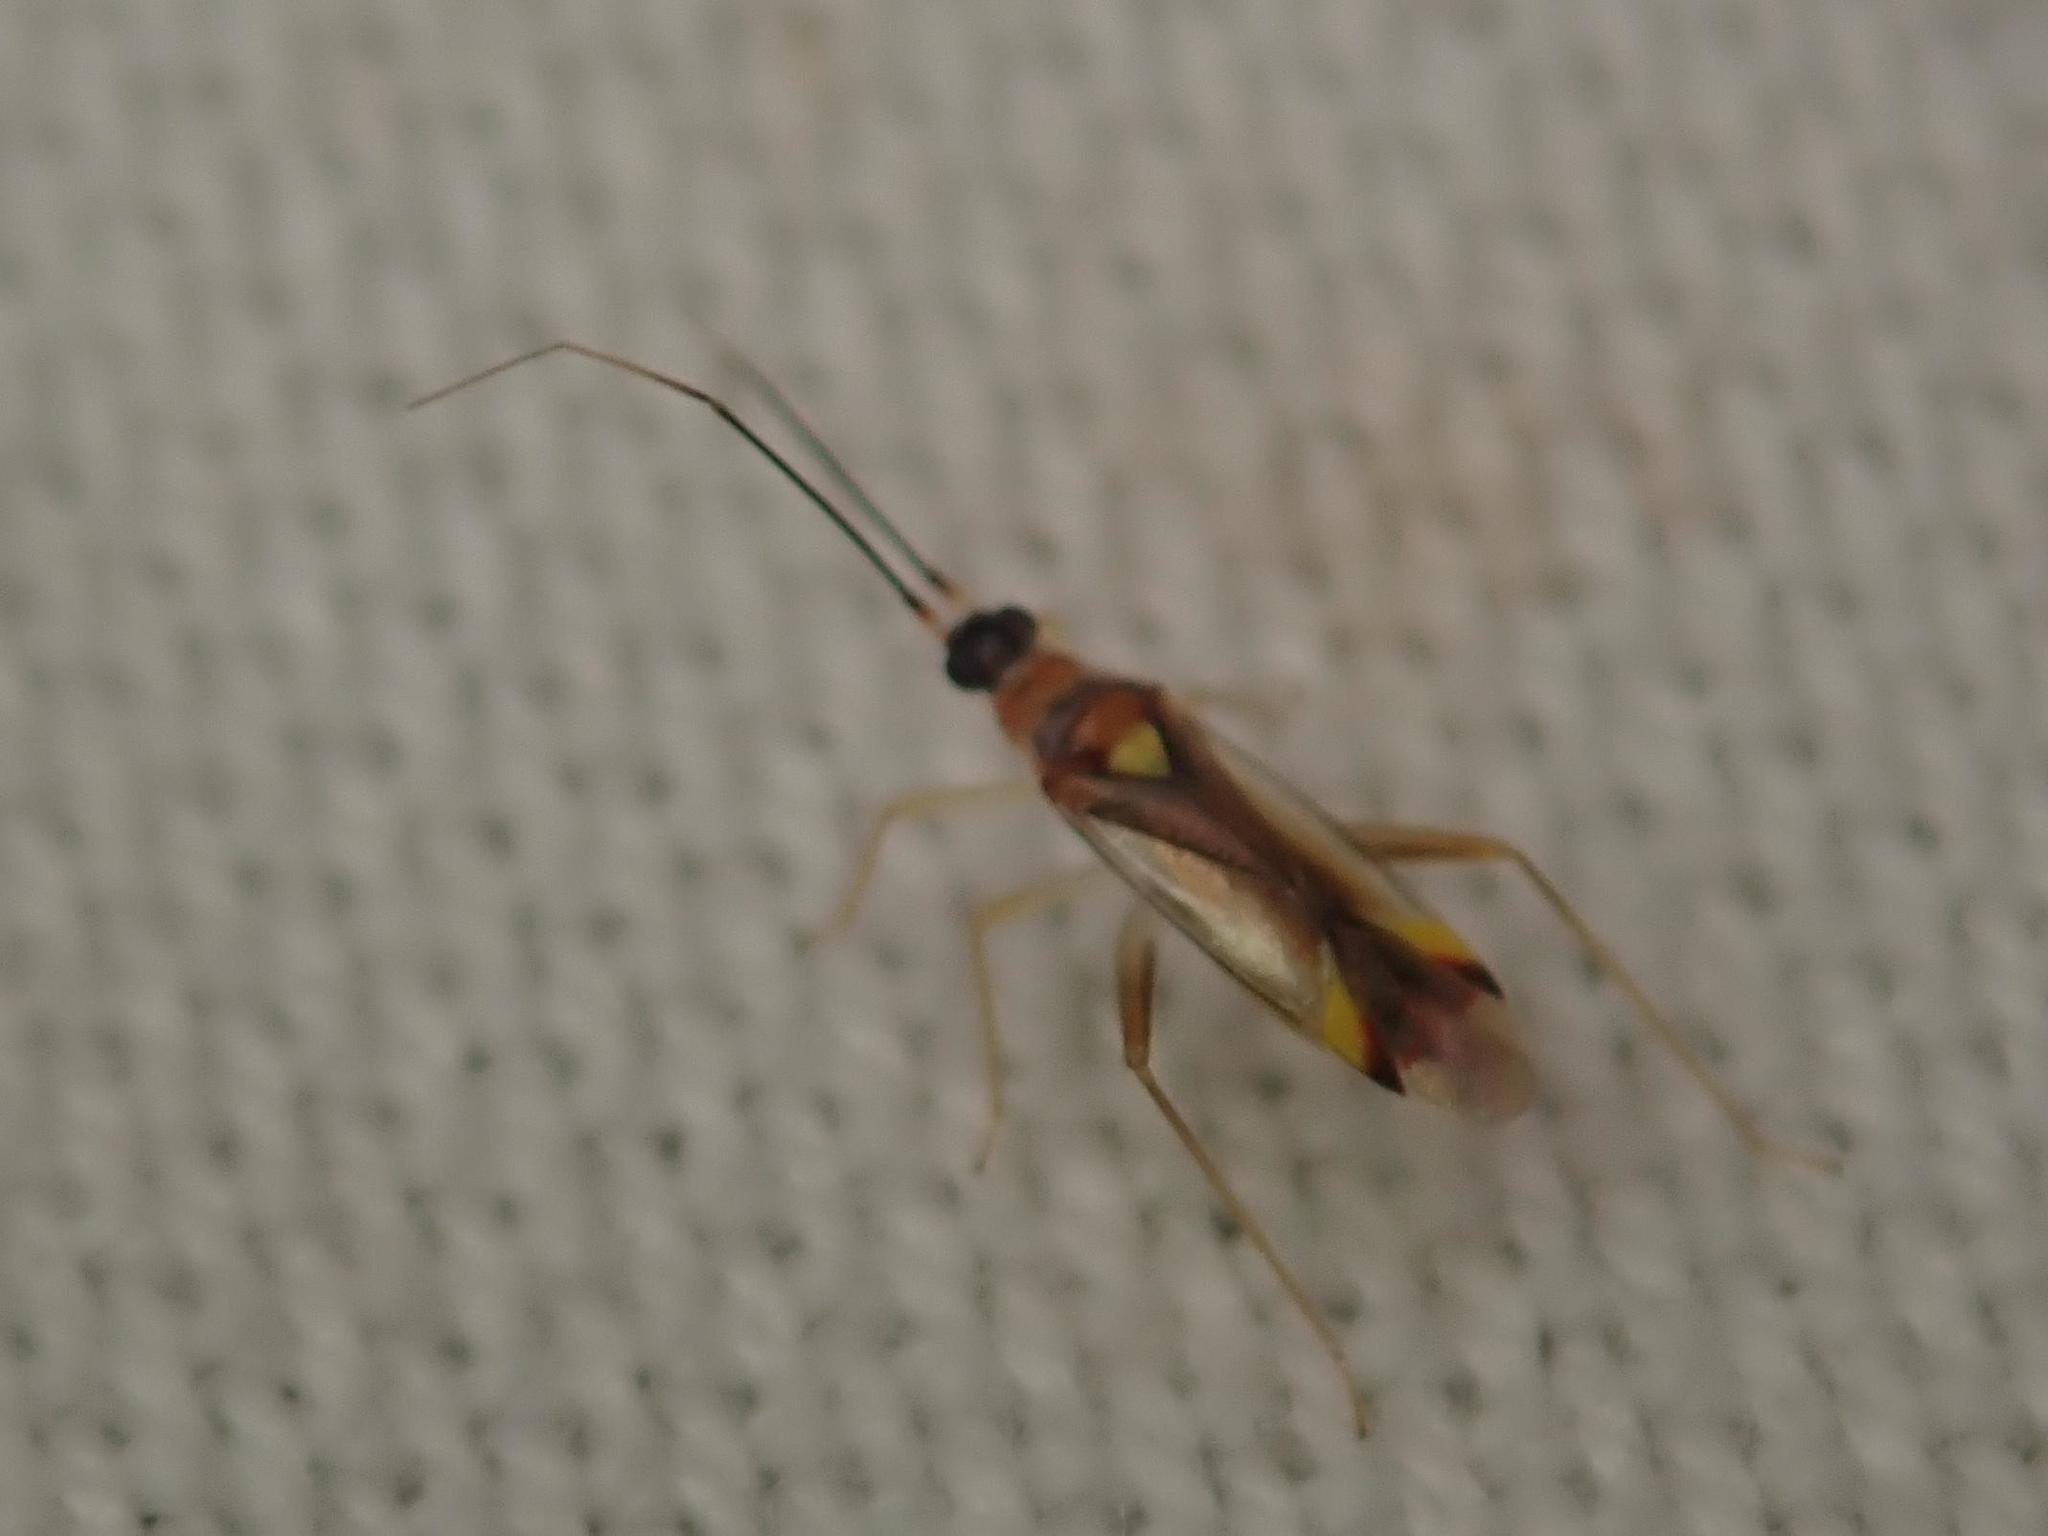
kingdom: Animalia
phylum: Arthropoda
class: Insecta
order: Hemiptera
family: Miridae
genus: Campyloneura
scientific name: Campyloneura virgula
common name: Predatory bug
